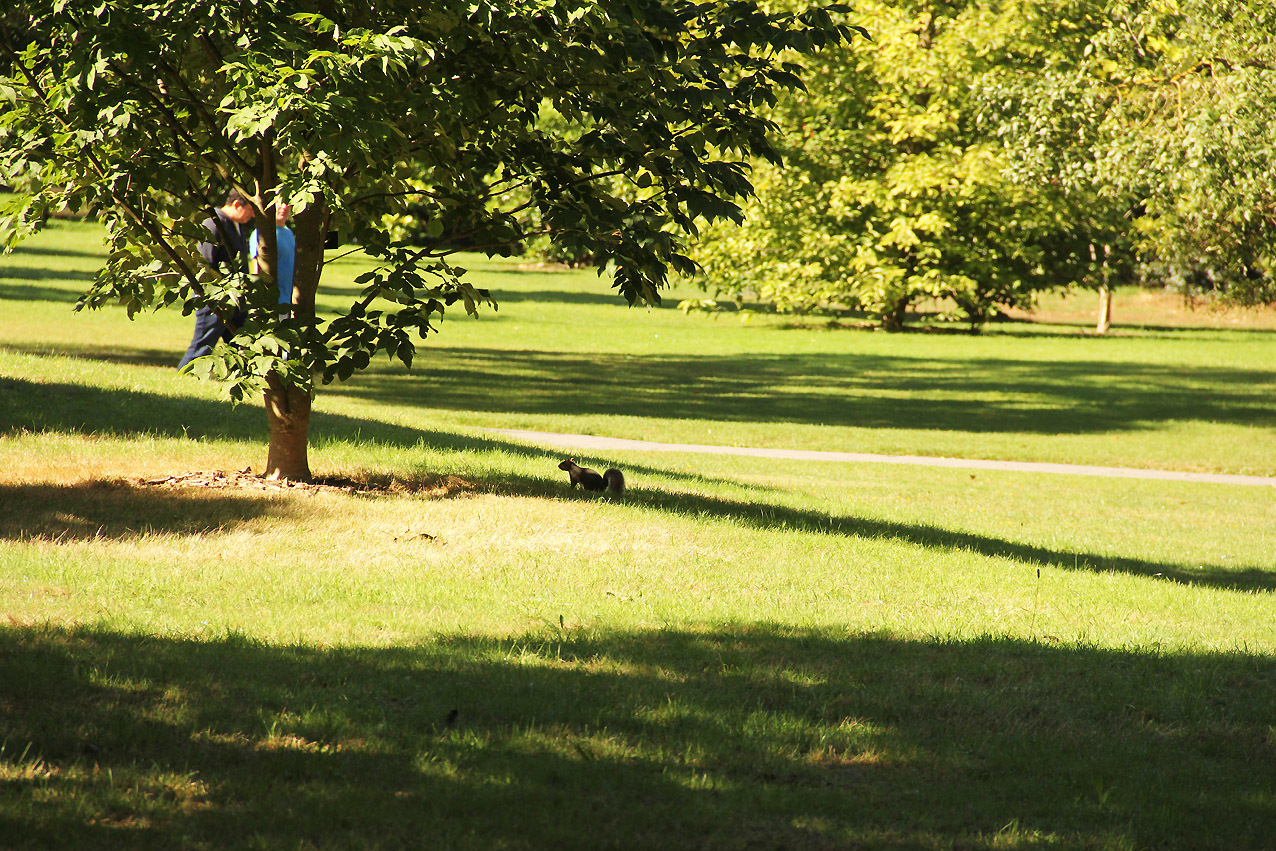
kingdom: Animalia
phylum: Chordata
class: Mammalia
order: Rodentia
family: Sciuridae
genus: Sciurus
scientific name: Sciurus carolinensis
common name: Eastern gray squirrel
